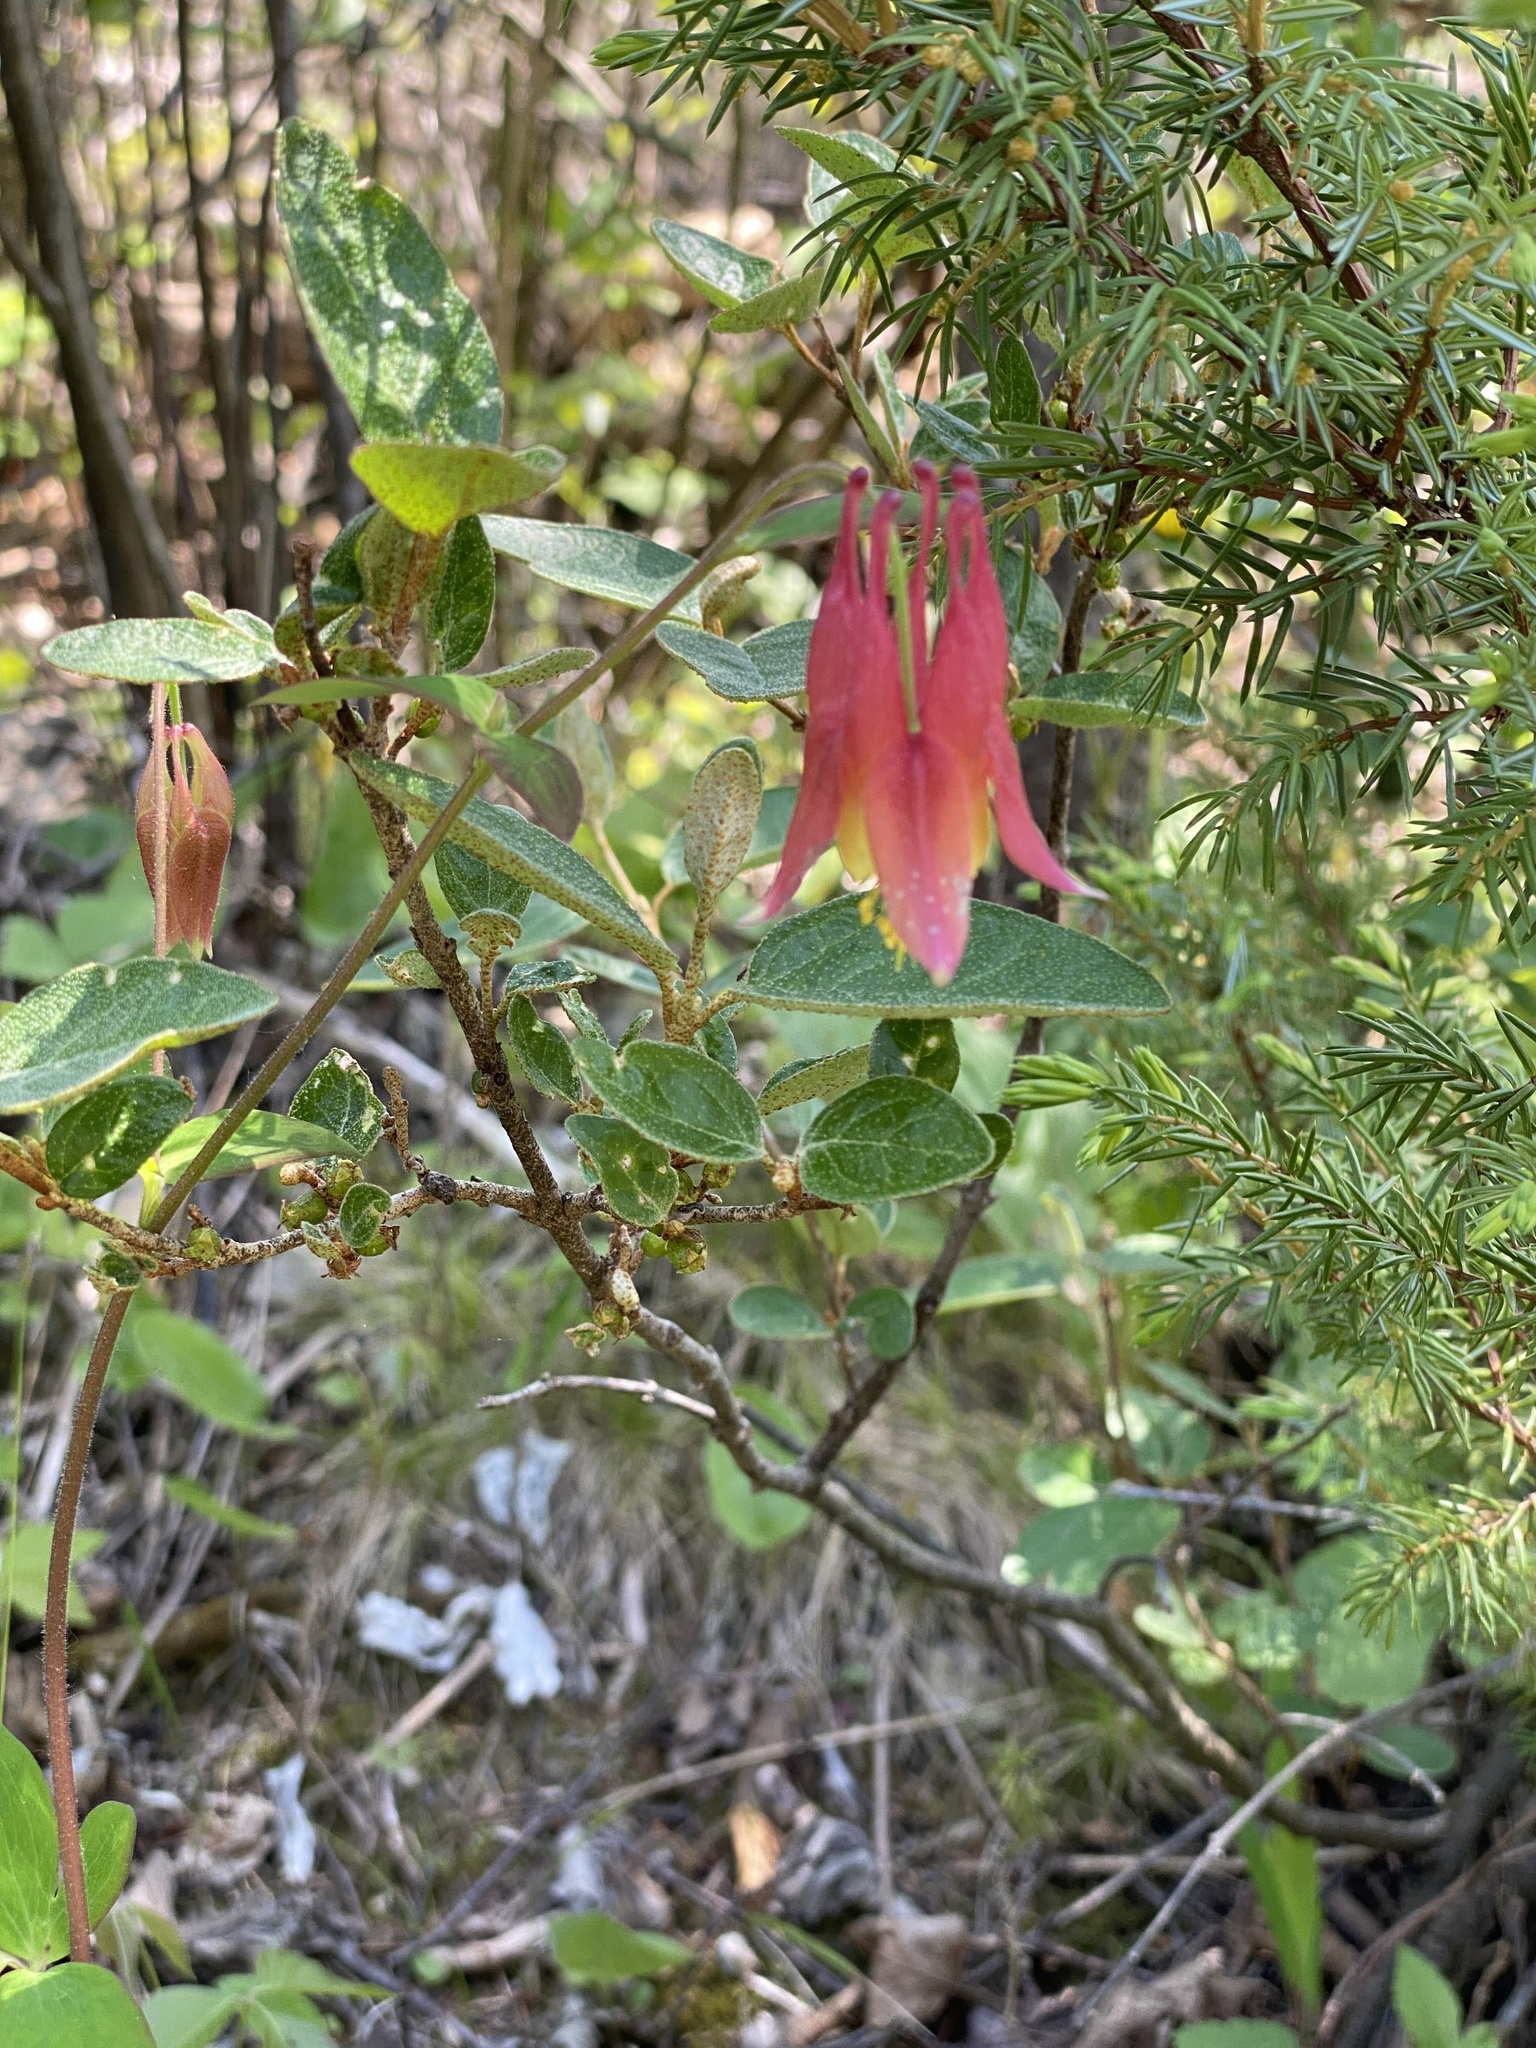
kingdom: Plantae
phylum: Tracheophyta
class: Magnoliopsida
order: Ranunculales
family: Ranunculaceae
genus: Aquilegia
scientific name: Aquilegia canadensis
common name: American columbine
